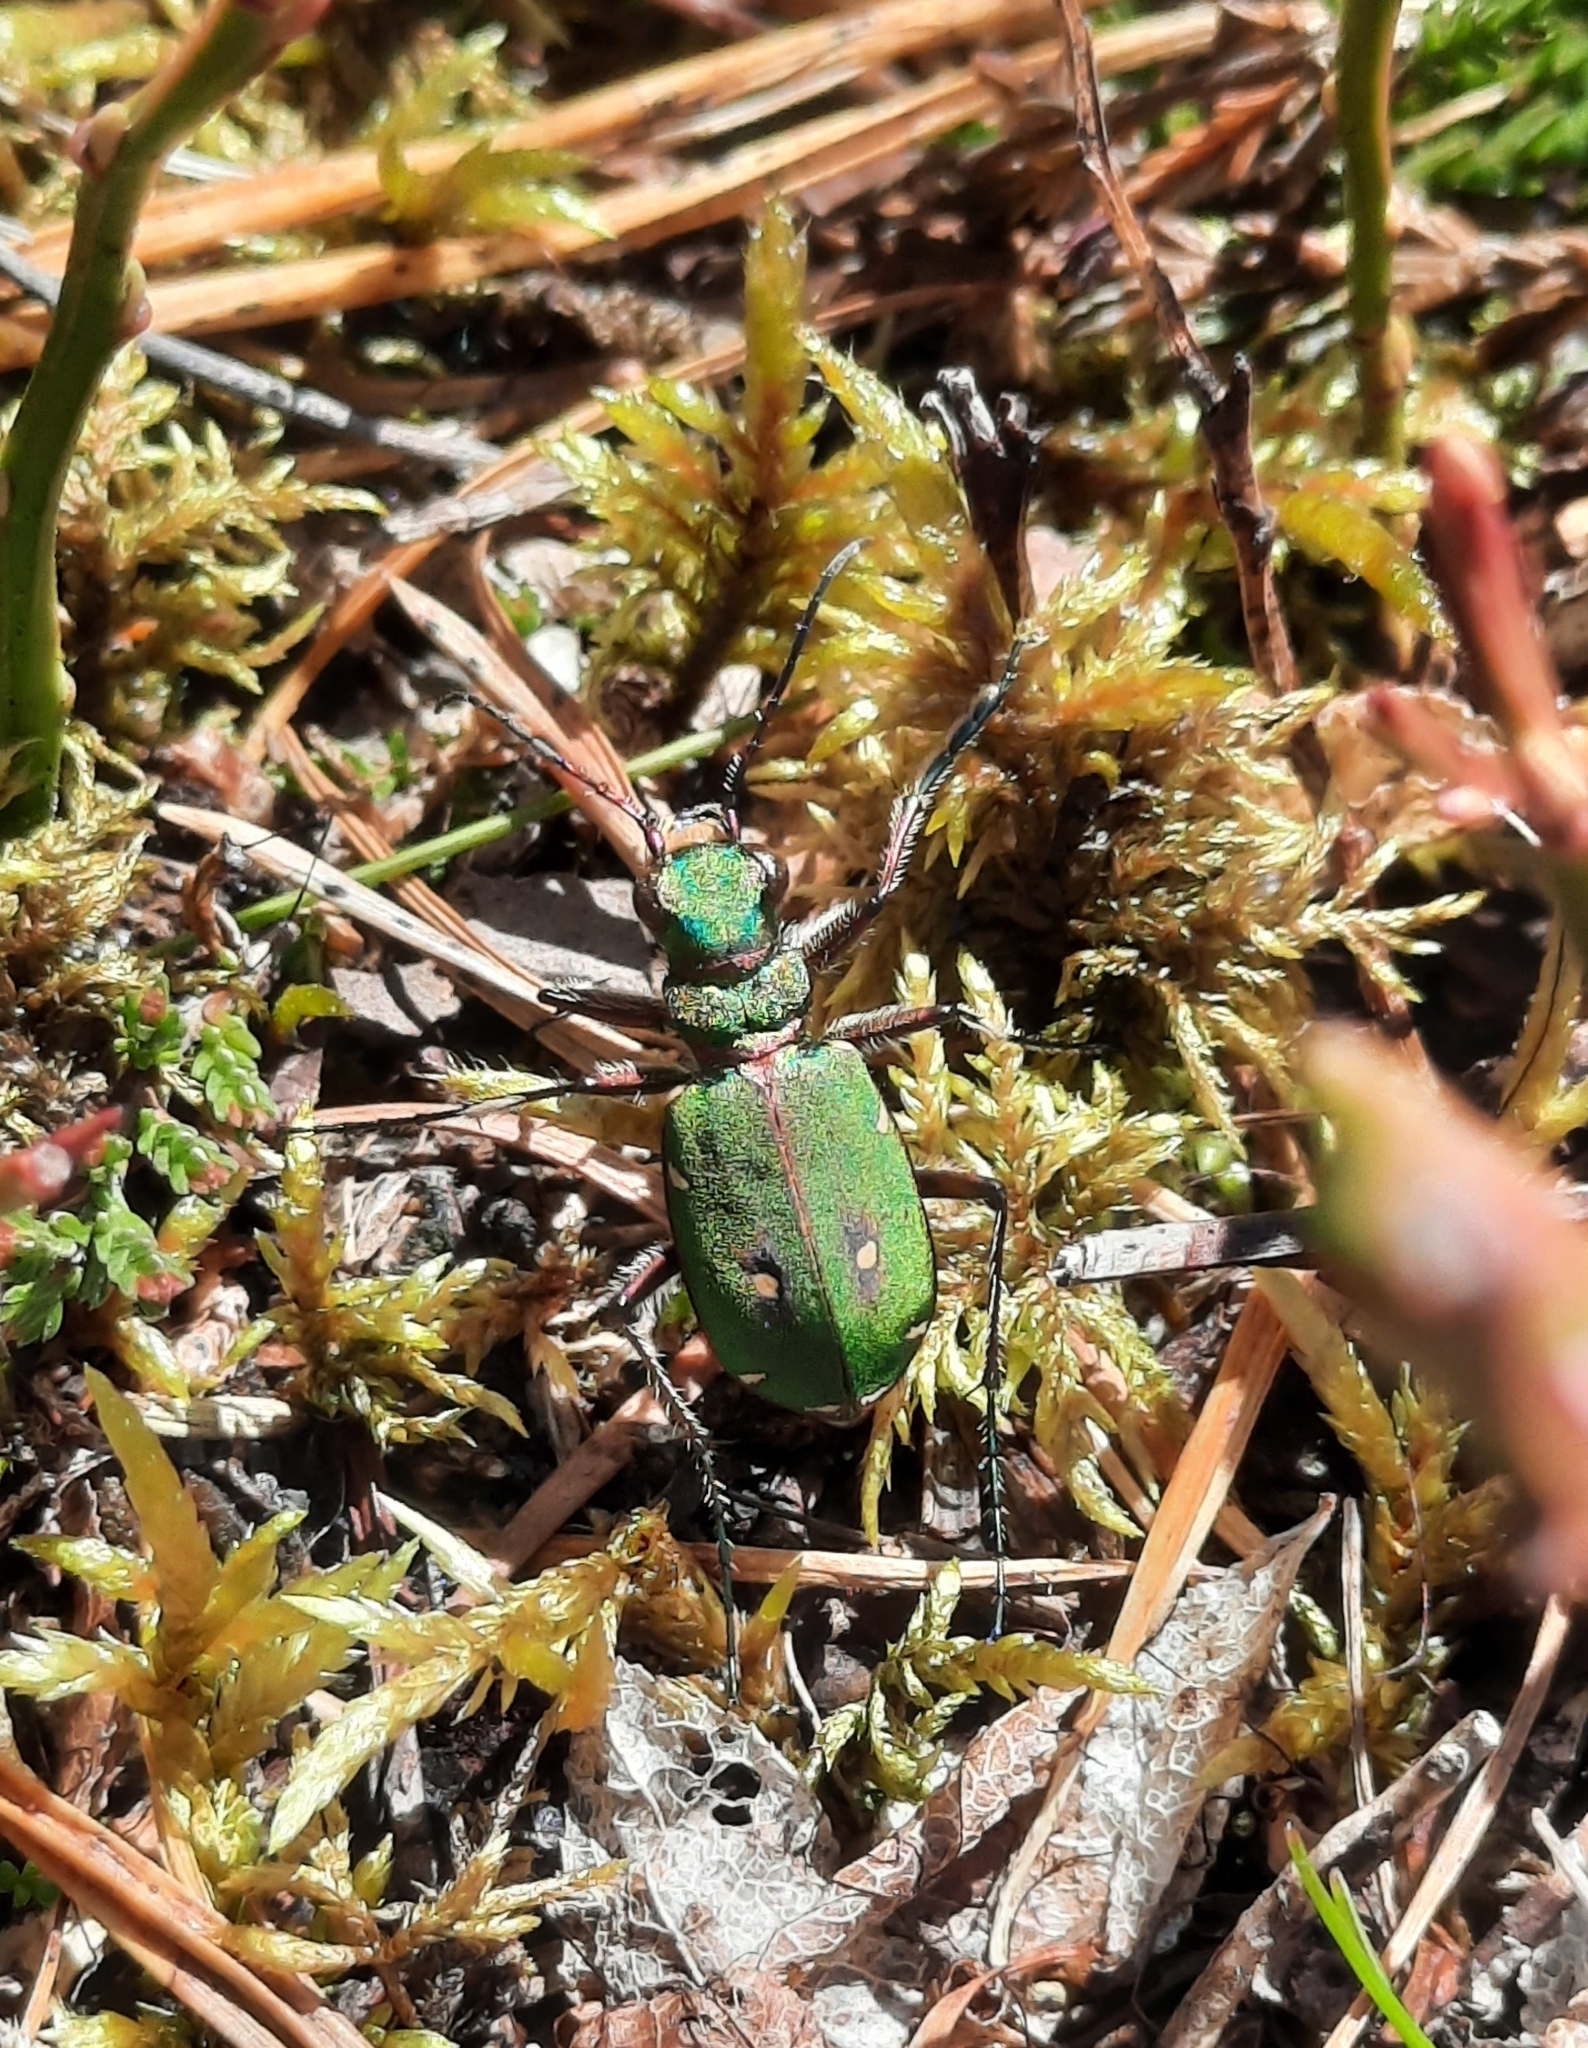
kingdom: Animalia
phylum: Arthropoda
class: Insecta
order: Coleoptera
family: Carabidae
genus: Cicindela
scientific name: Cicindela campestris
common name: Common tiger beetle
